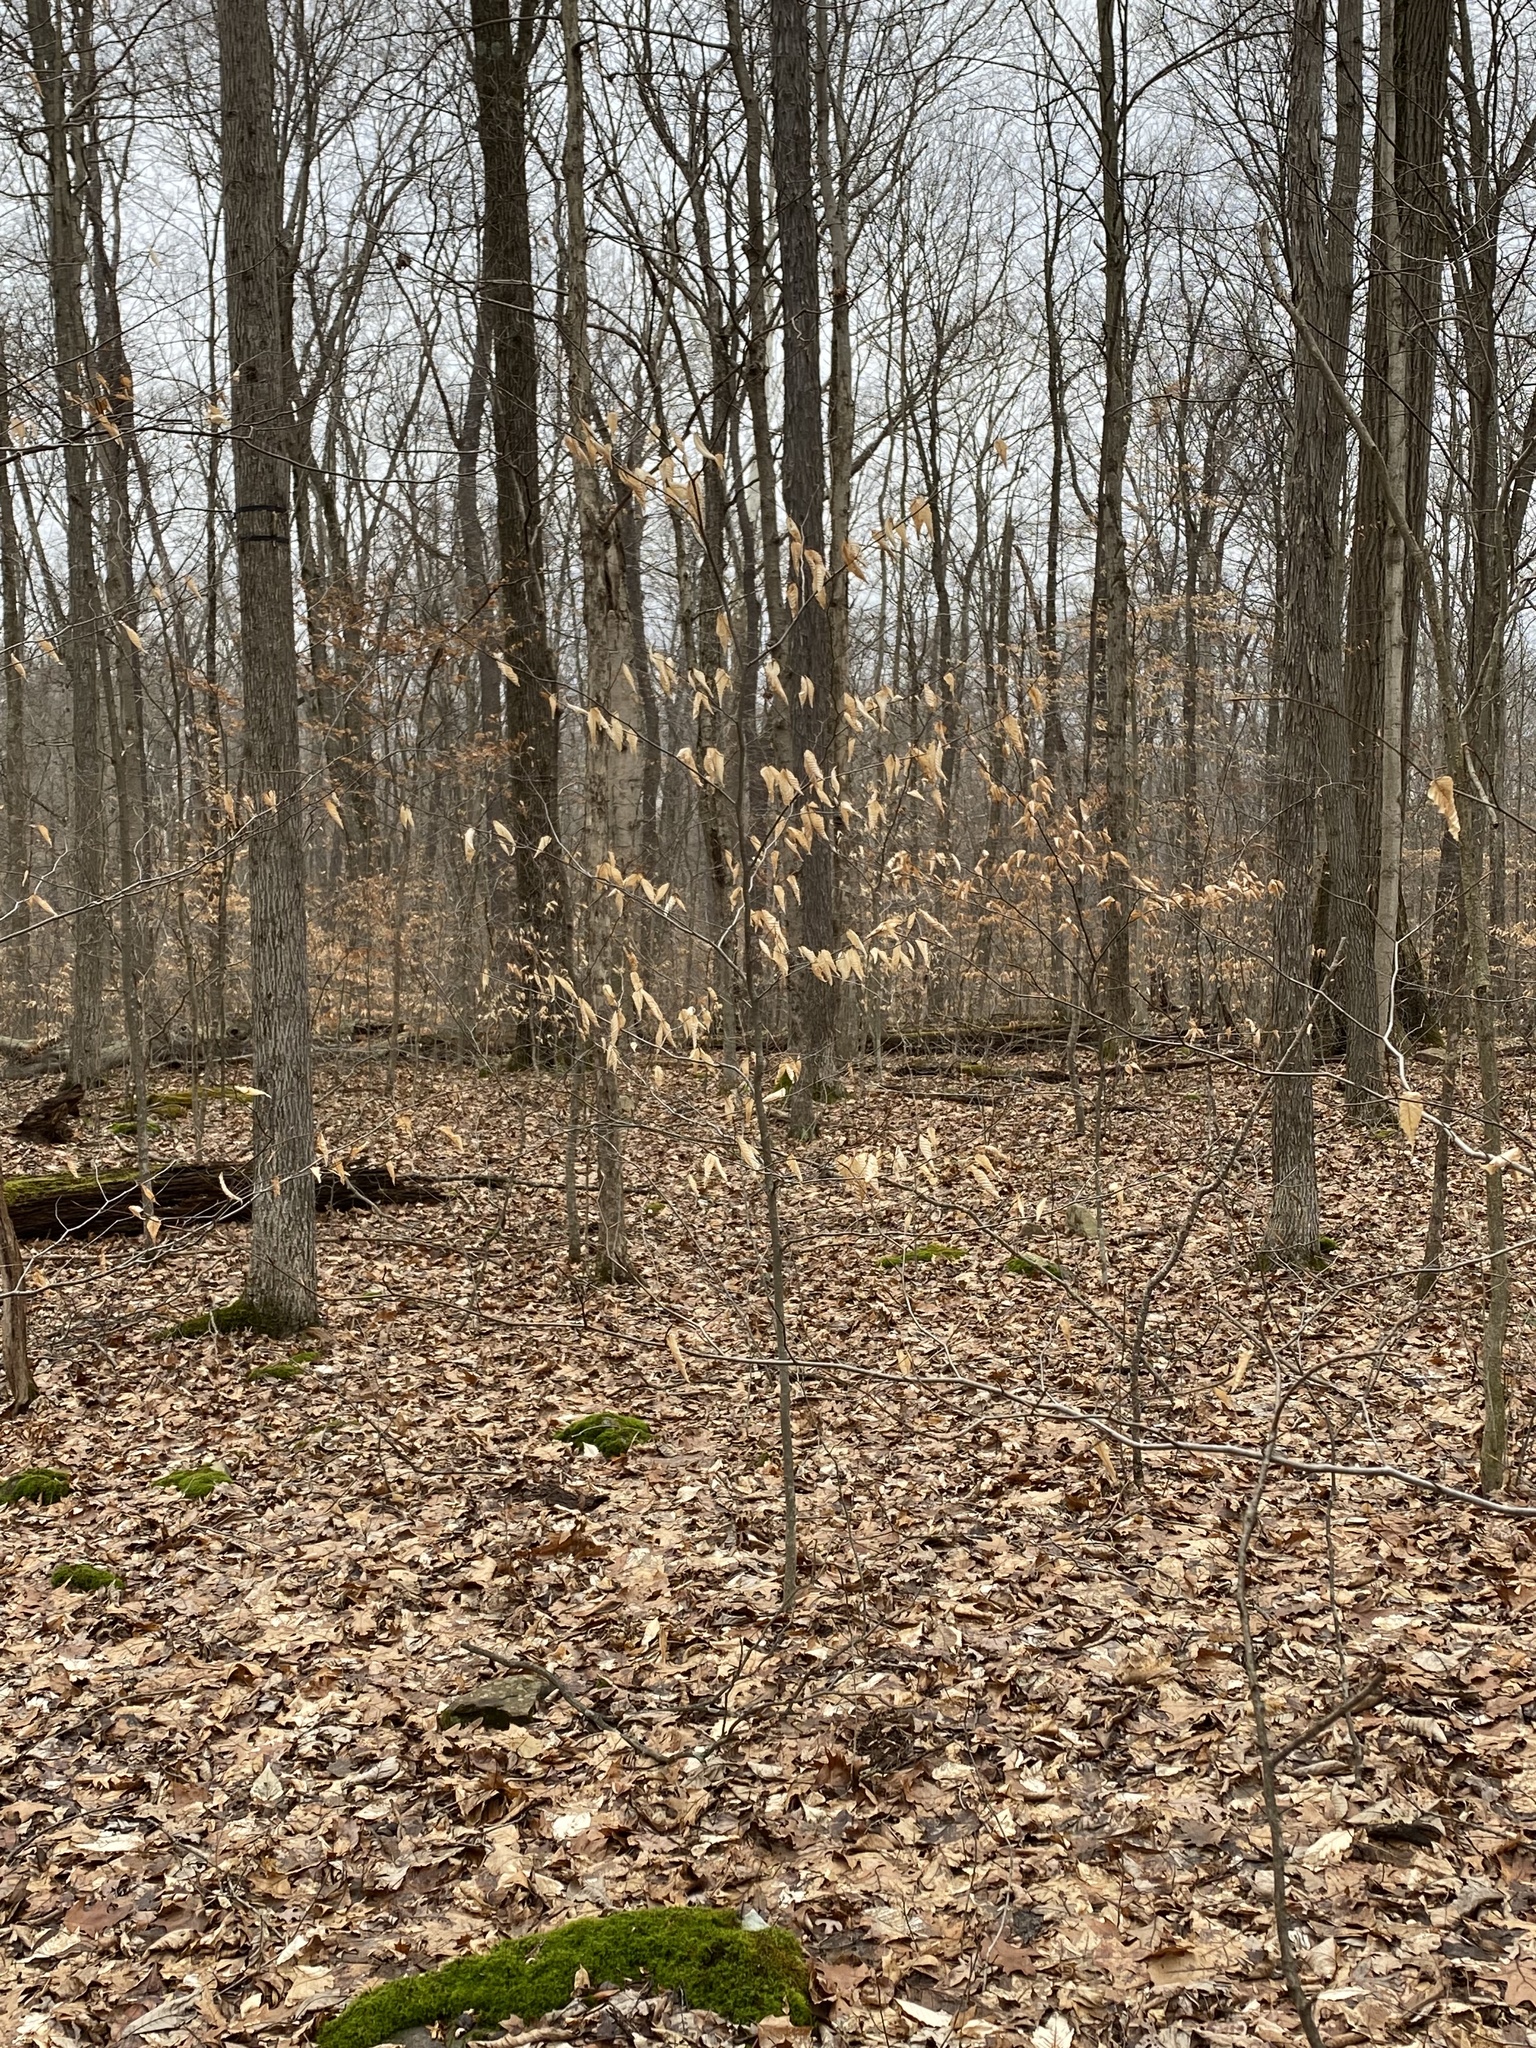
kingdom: Plantae
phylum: Tracheophyta
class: Magnoliopsida
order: Fagales
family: Fagaceae
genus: Fagus
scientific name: Fagus grandifolia
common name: American beech
